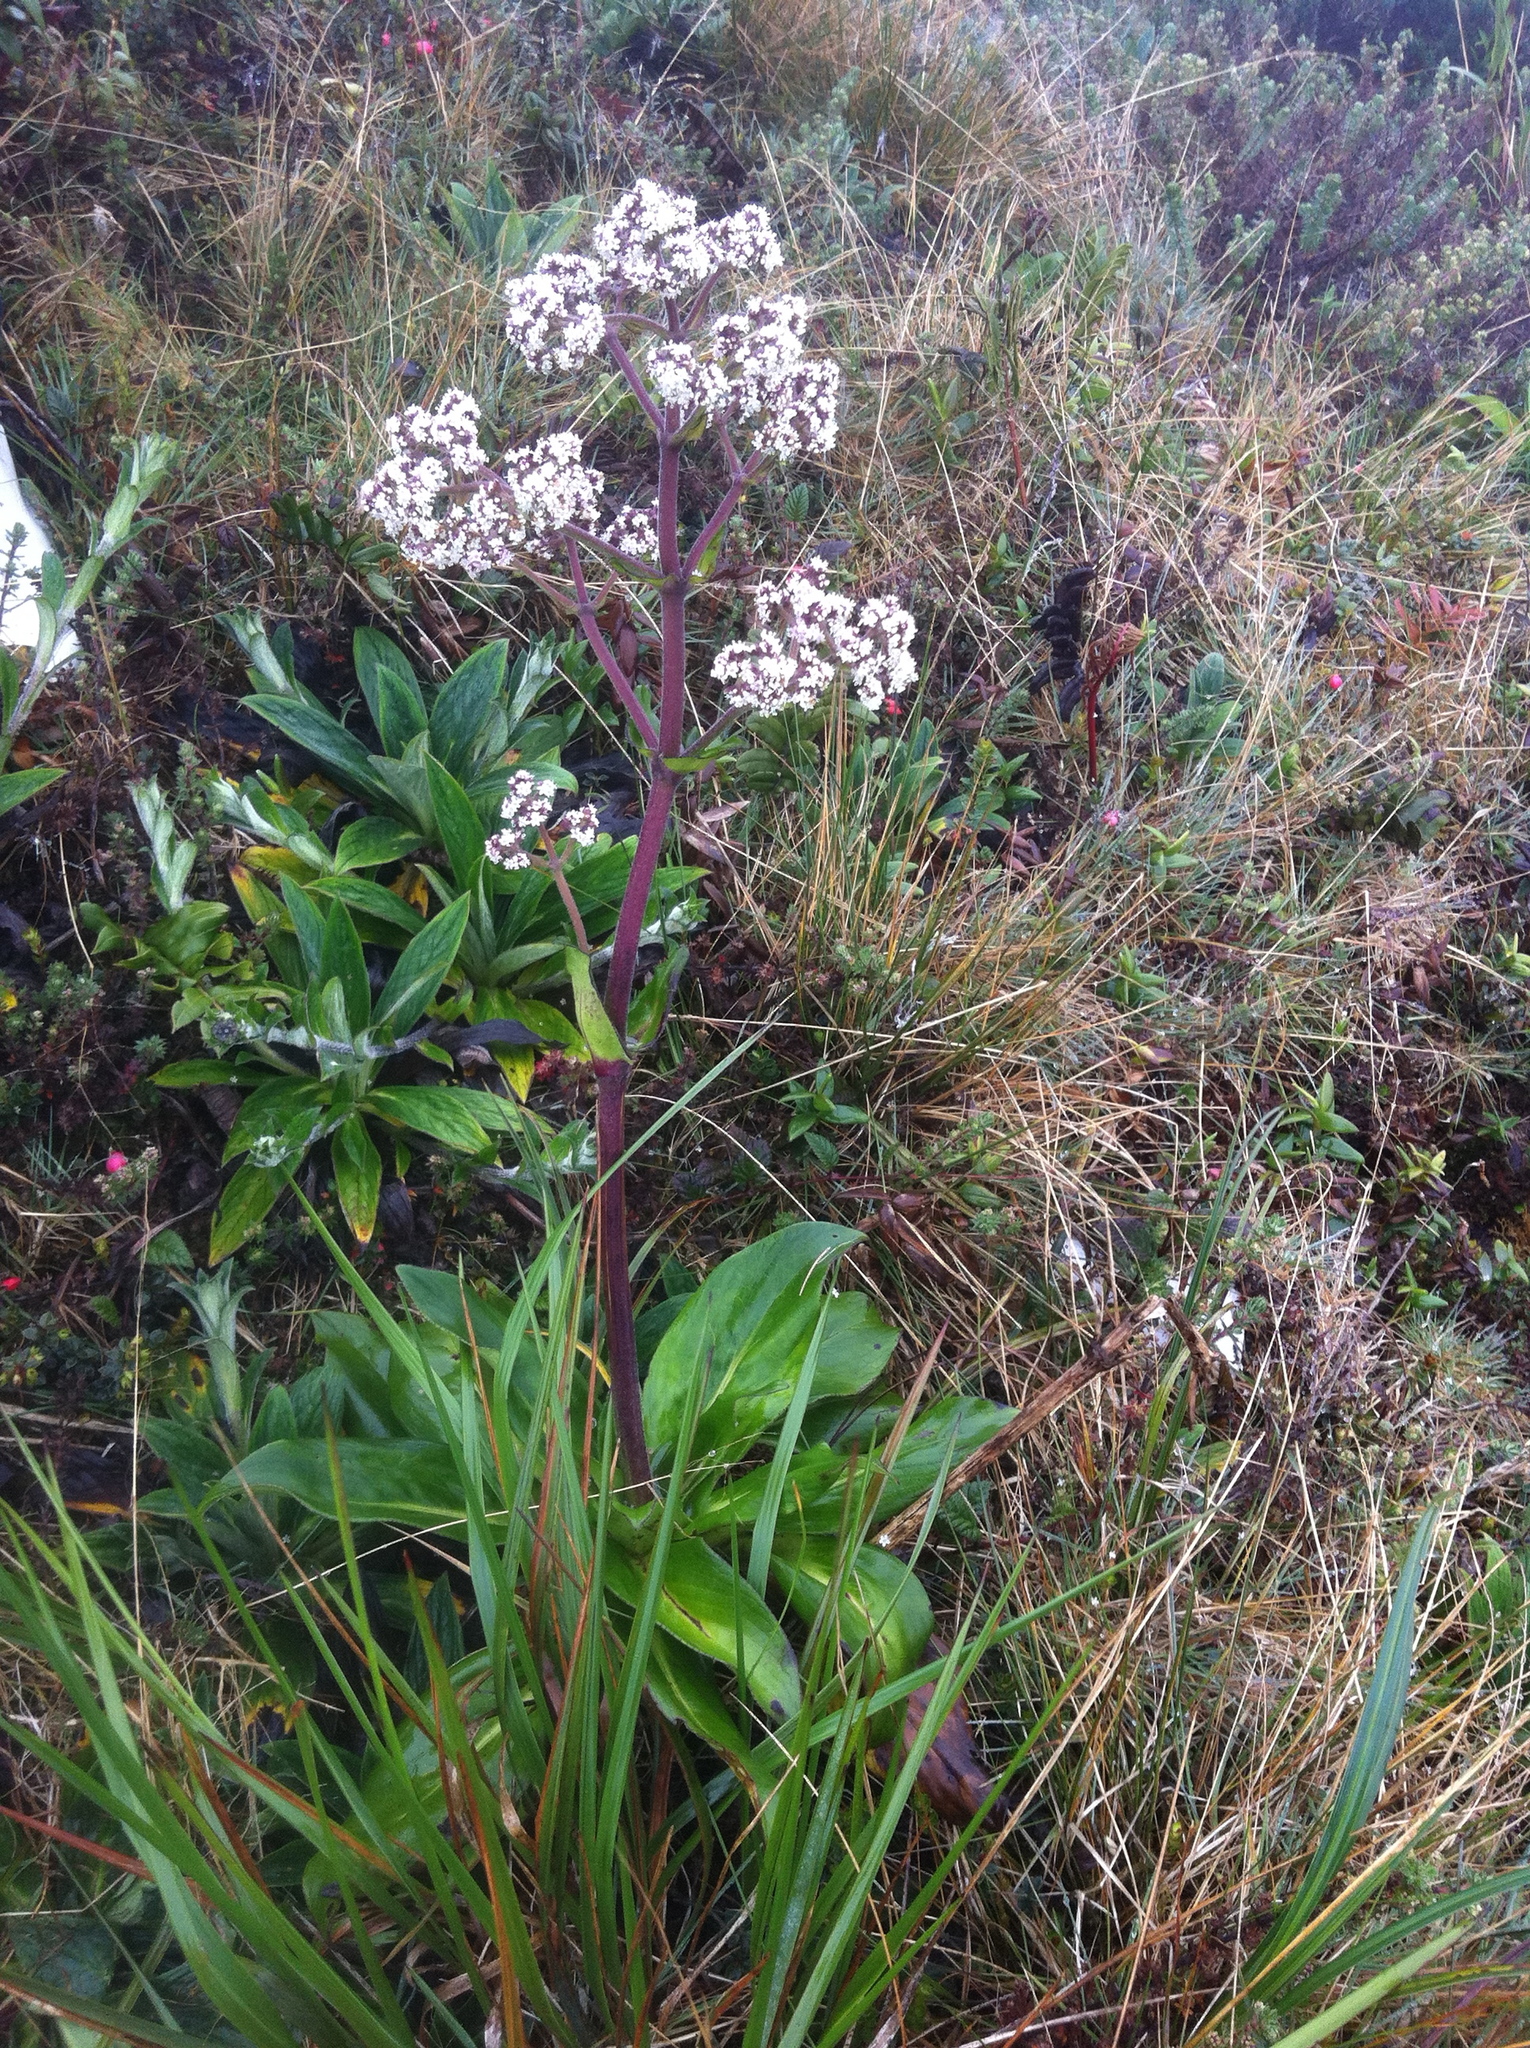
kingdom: Plantae
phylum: Tracheophyta
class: Magnoliopsida
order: Dipsacales
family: Caprifoliaceae
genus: Valeriana
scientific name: Valeriana pilosa
